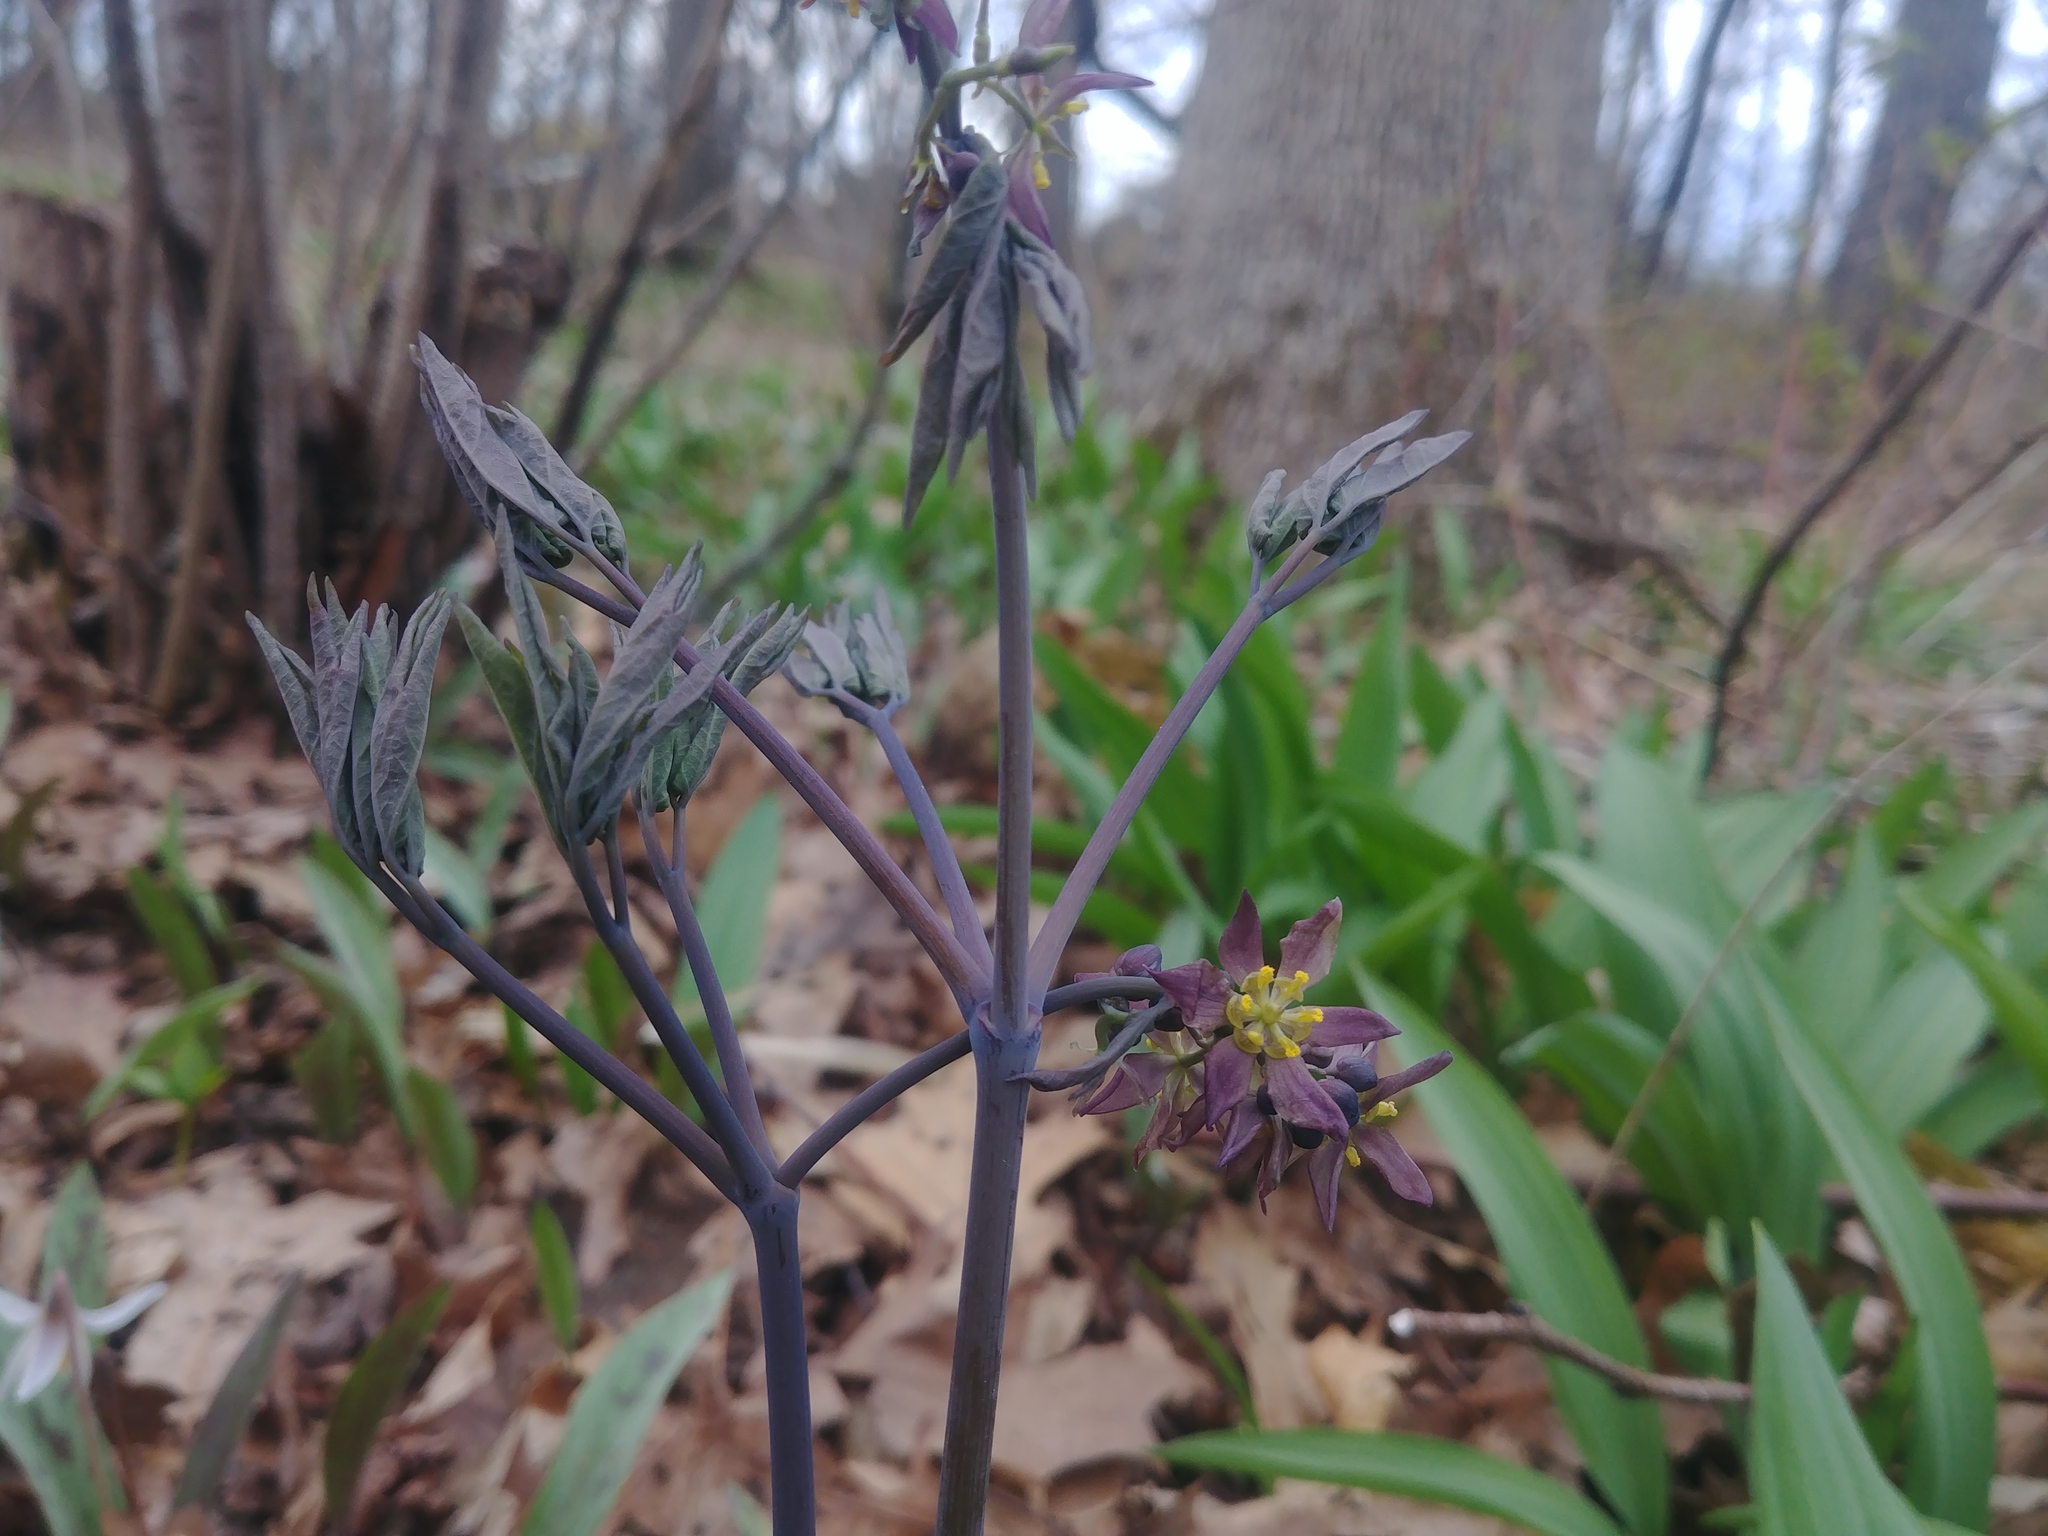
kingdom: Plantae
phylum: Tracheophyta
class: Magnoliopsida
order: Ranunculales
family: Berberidaceae
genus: Caulophyllum
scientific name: Caulophyllum giganteum
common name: Blue cohosh
